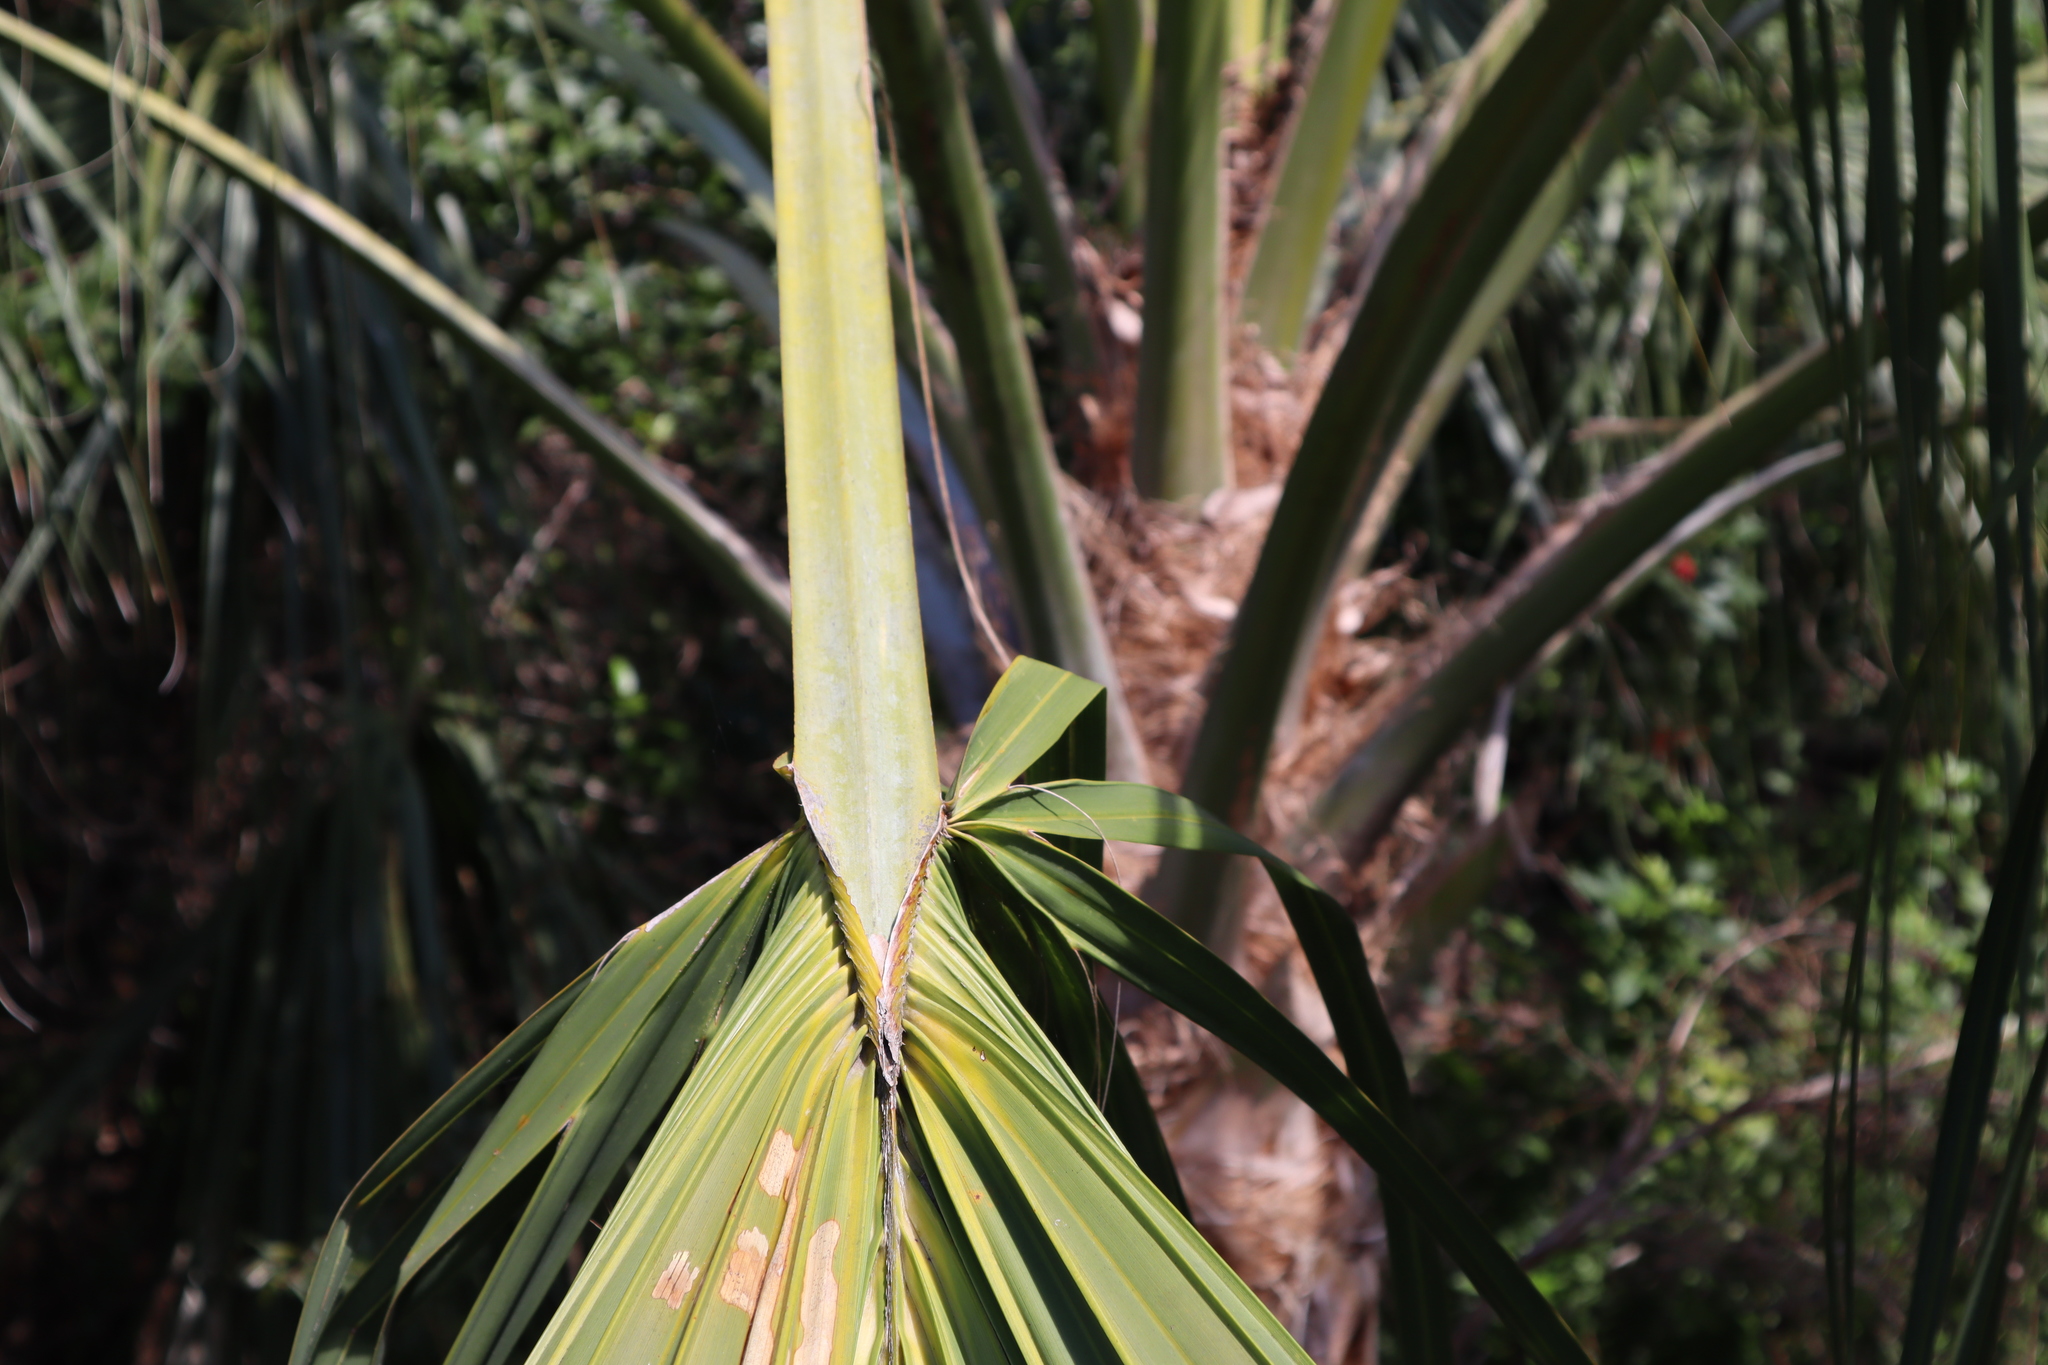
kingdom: Plantae
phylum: Tracheophyta
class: Liliopsida
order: Arecales
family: Arecaceae
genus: Sabal
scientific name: Sabal palmetto
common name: Blue palmetto
